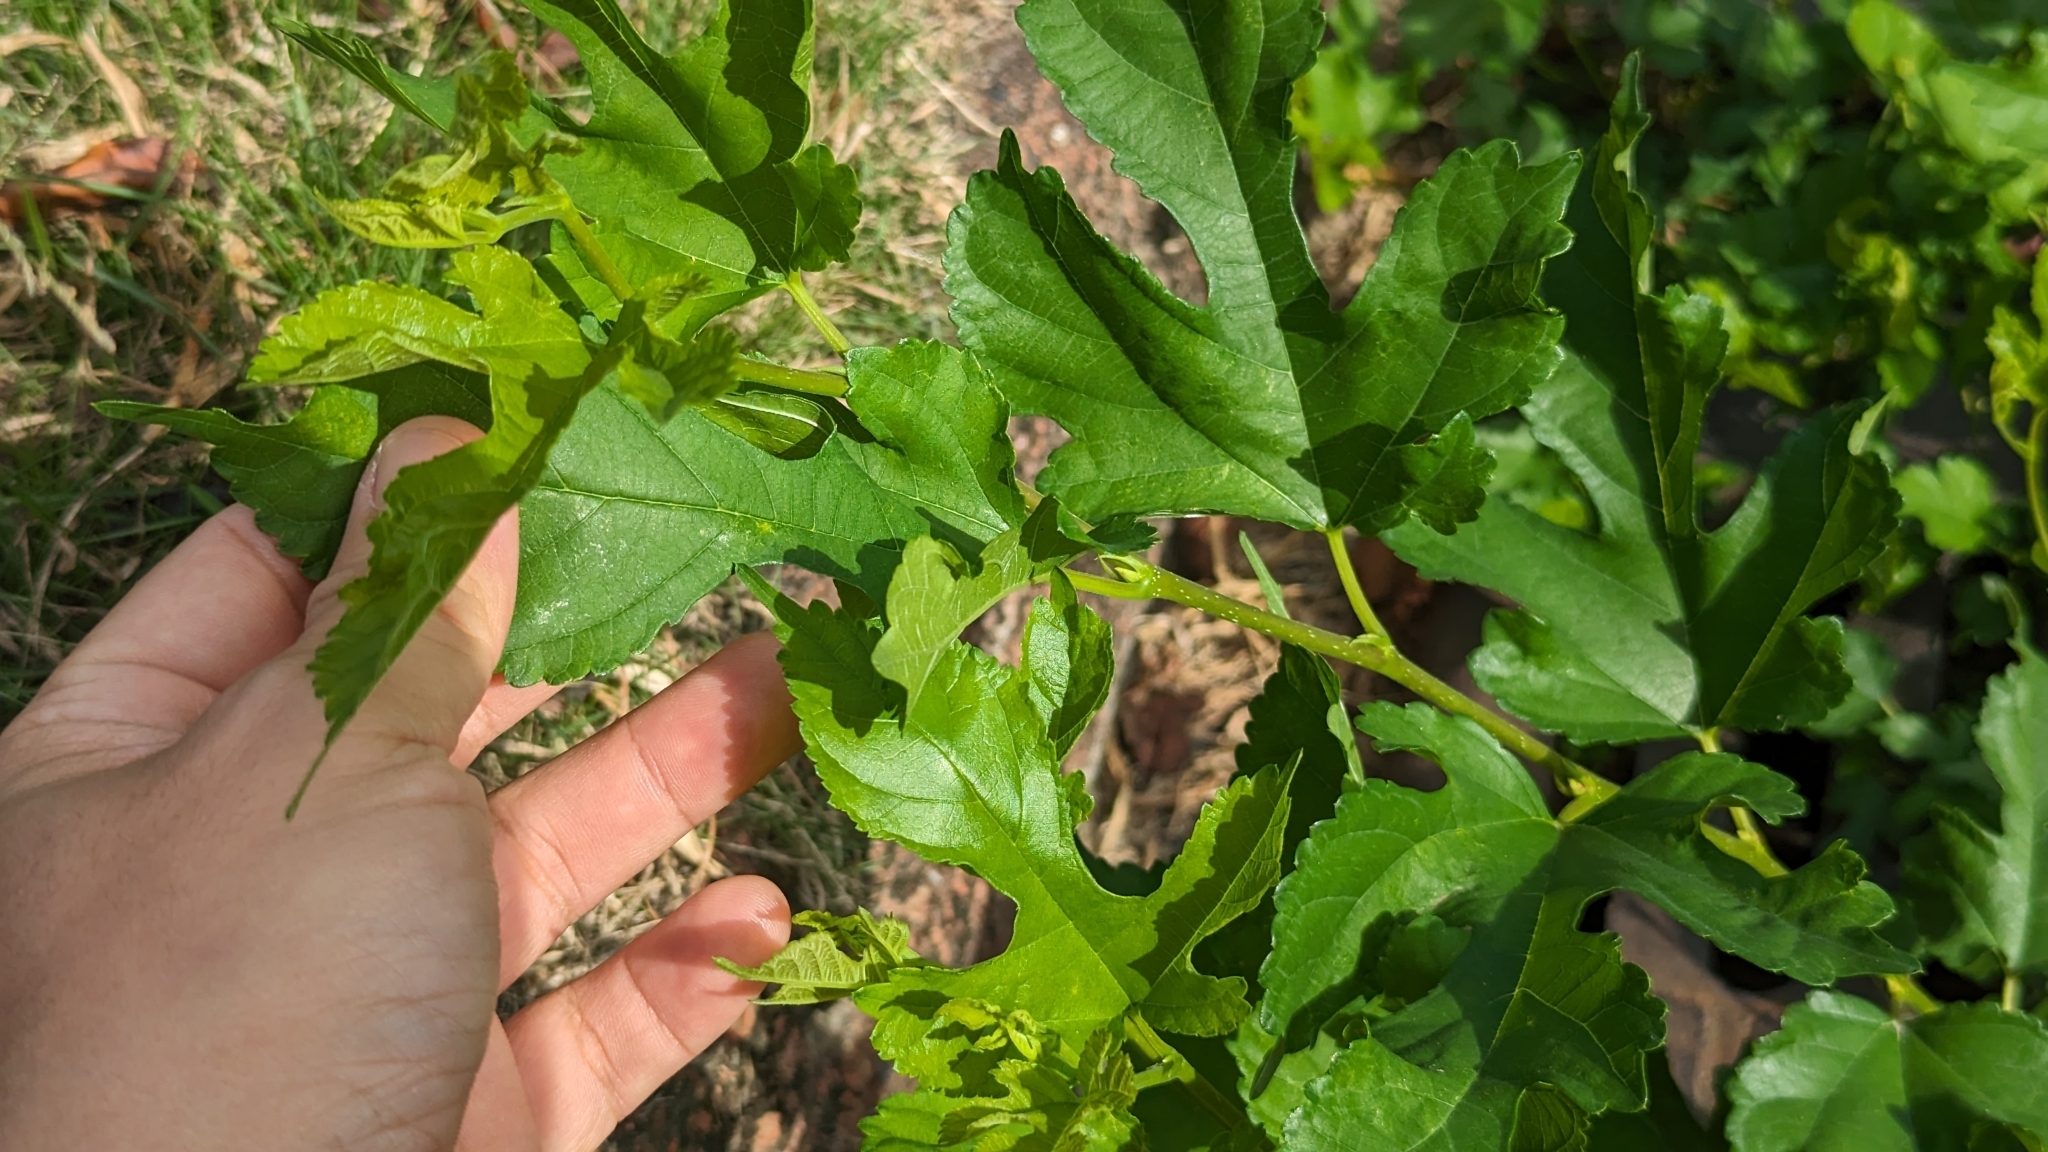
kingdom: Plantae
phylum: Tracheophyta
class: Magnoliopsida
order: Rosales
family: Moraceae
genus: Morus
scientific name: Morus indica
